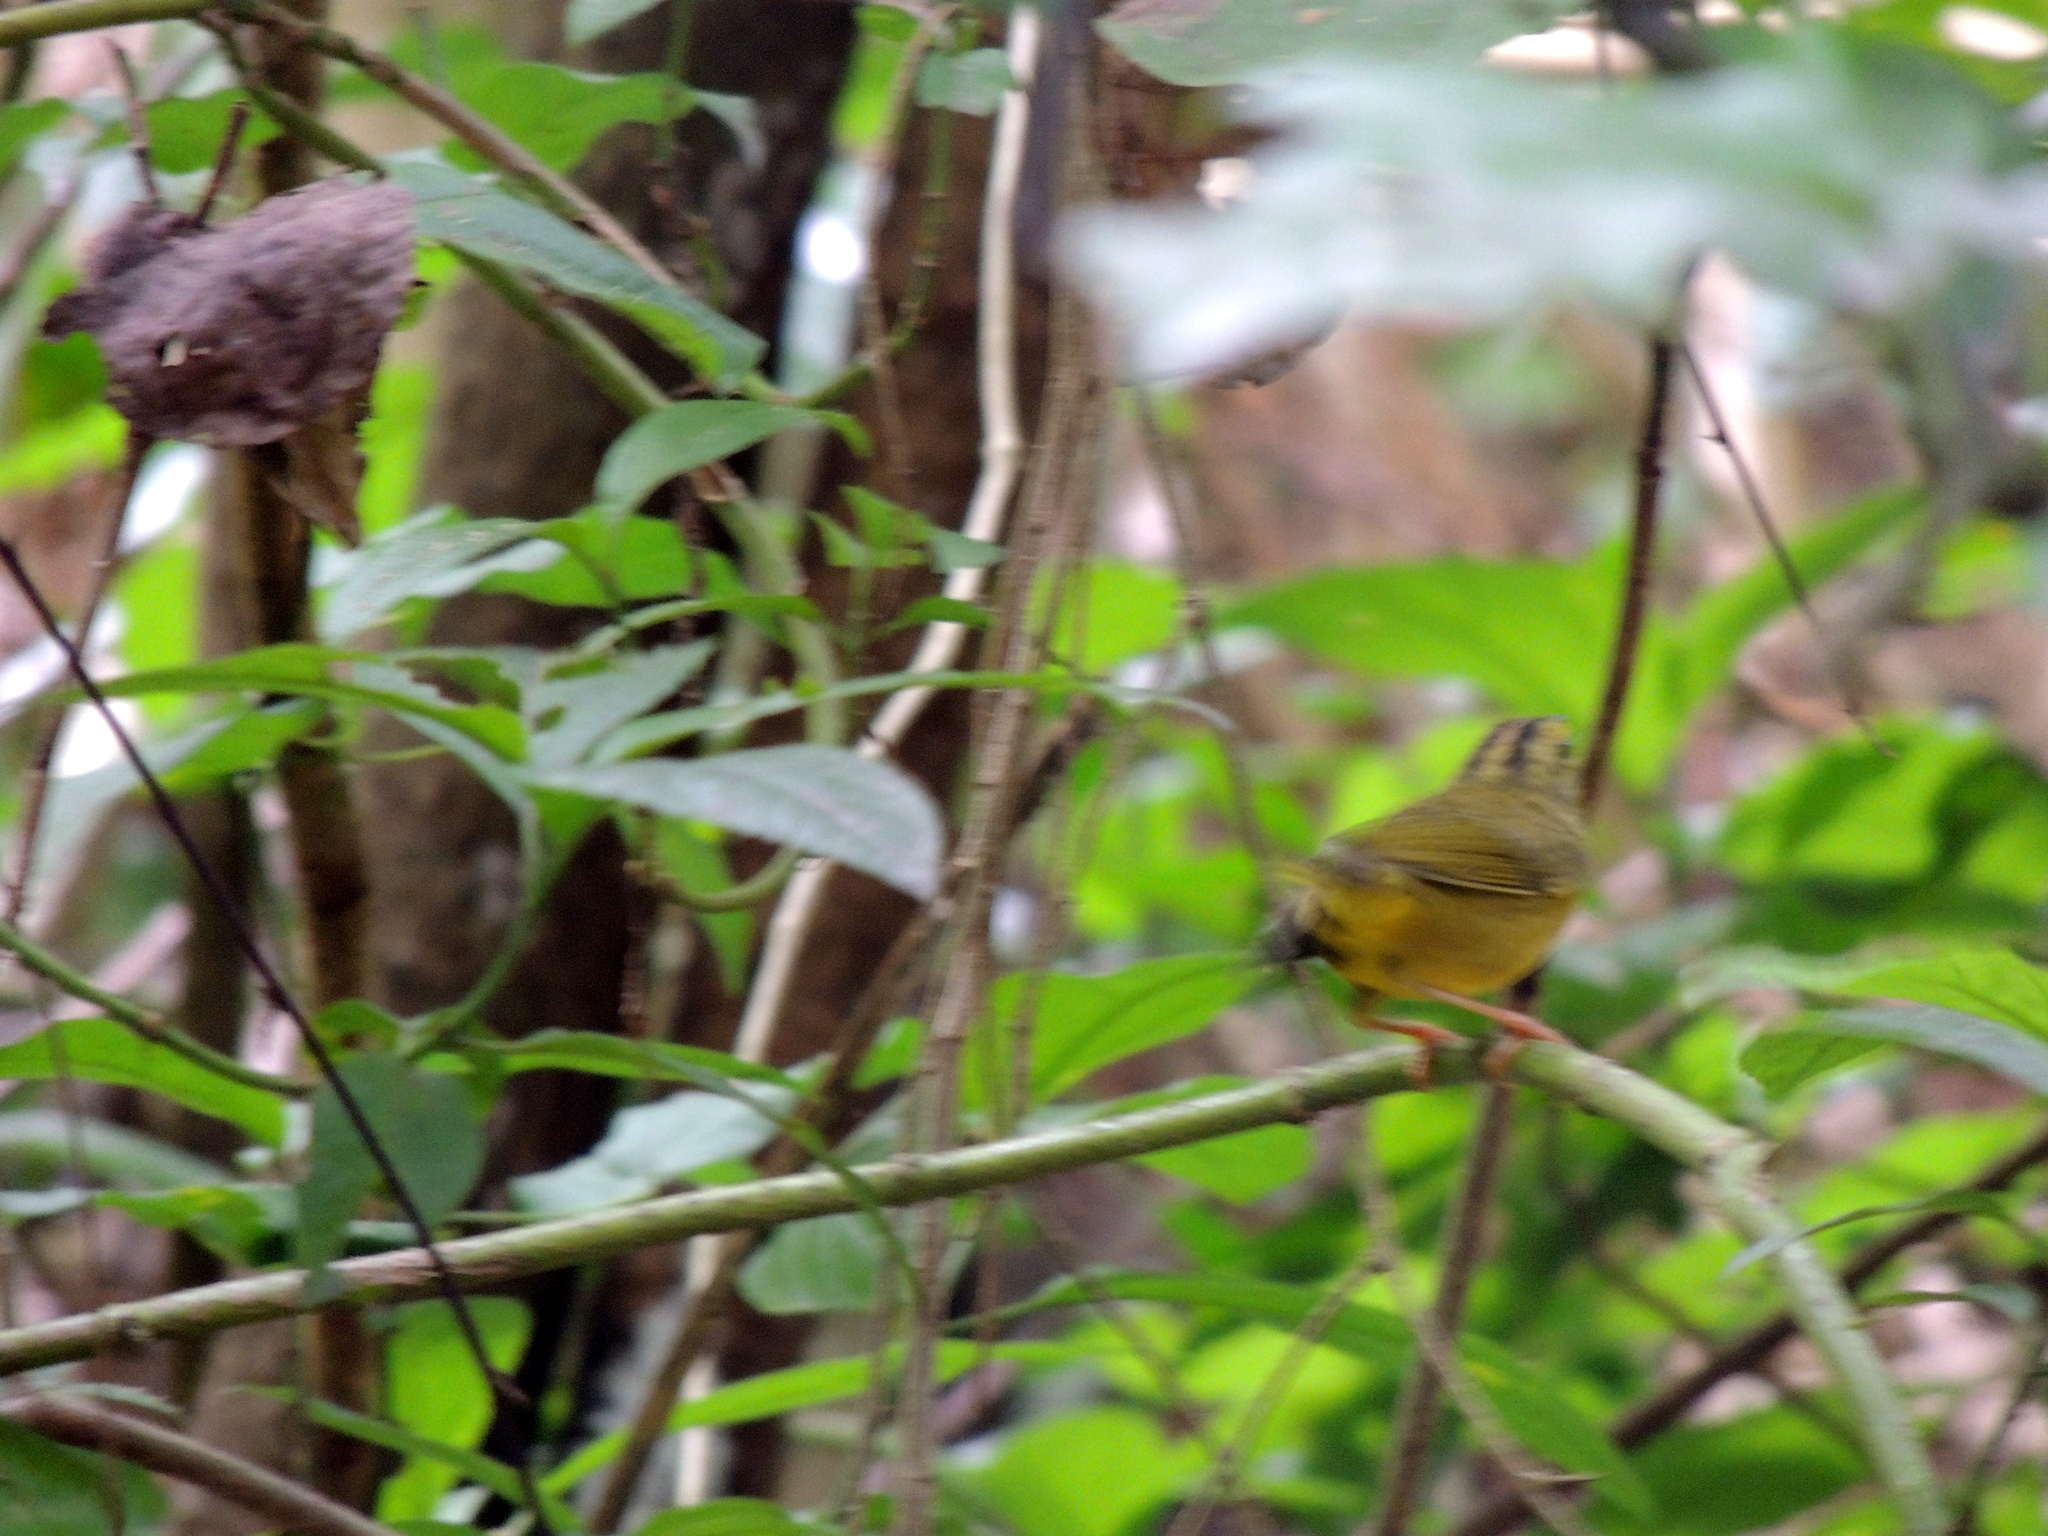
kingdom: Animalia
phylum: Chordata
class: Aves
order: Passeriformes
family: Parulidae
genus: Myiothlypis
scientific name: Myiothlypis bivittata
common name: Two-banded warbler
